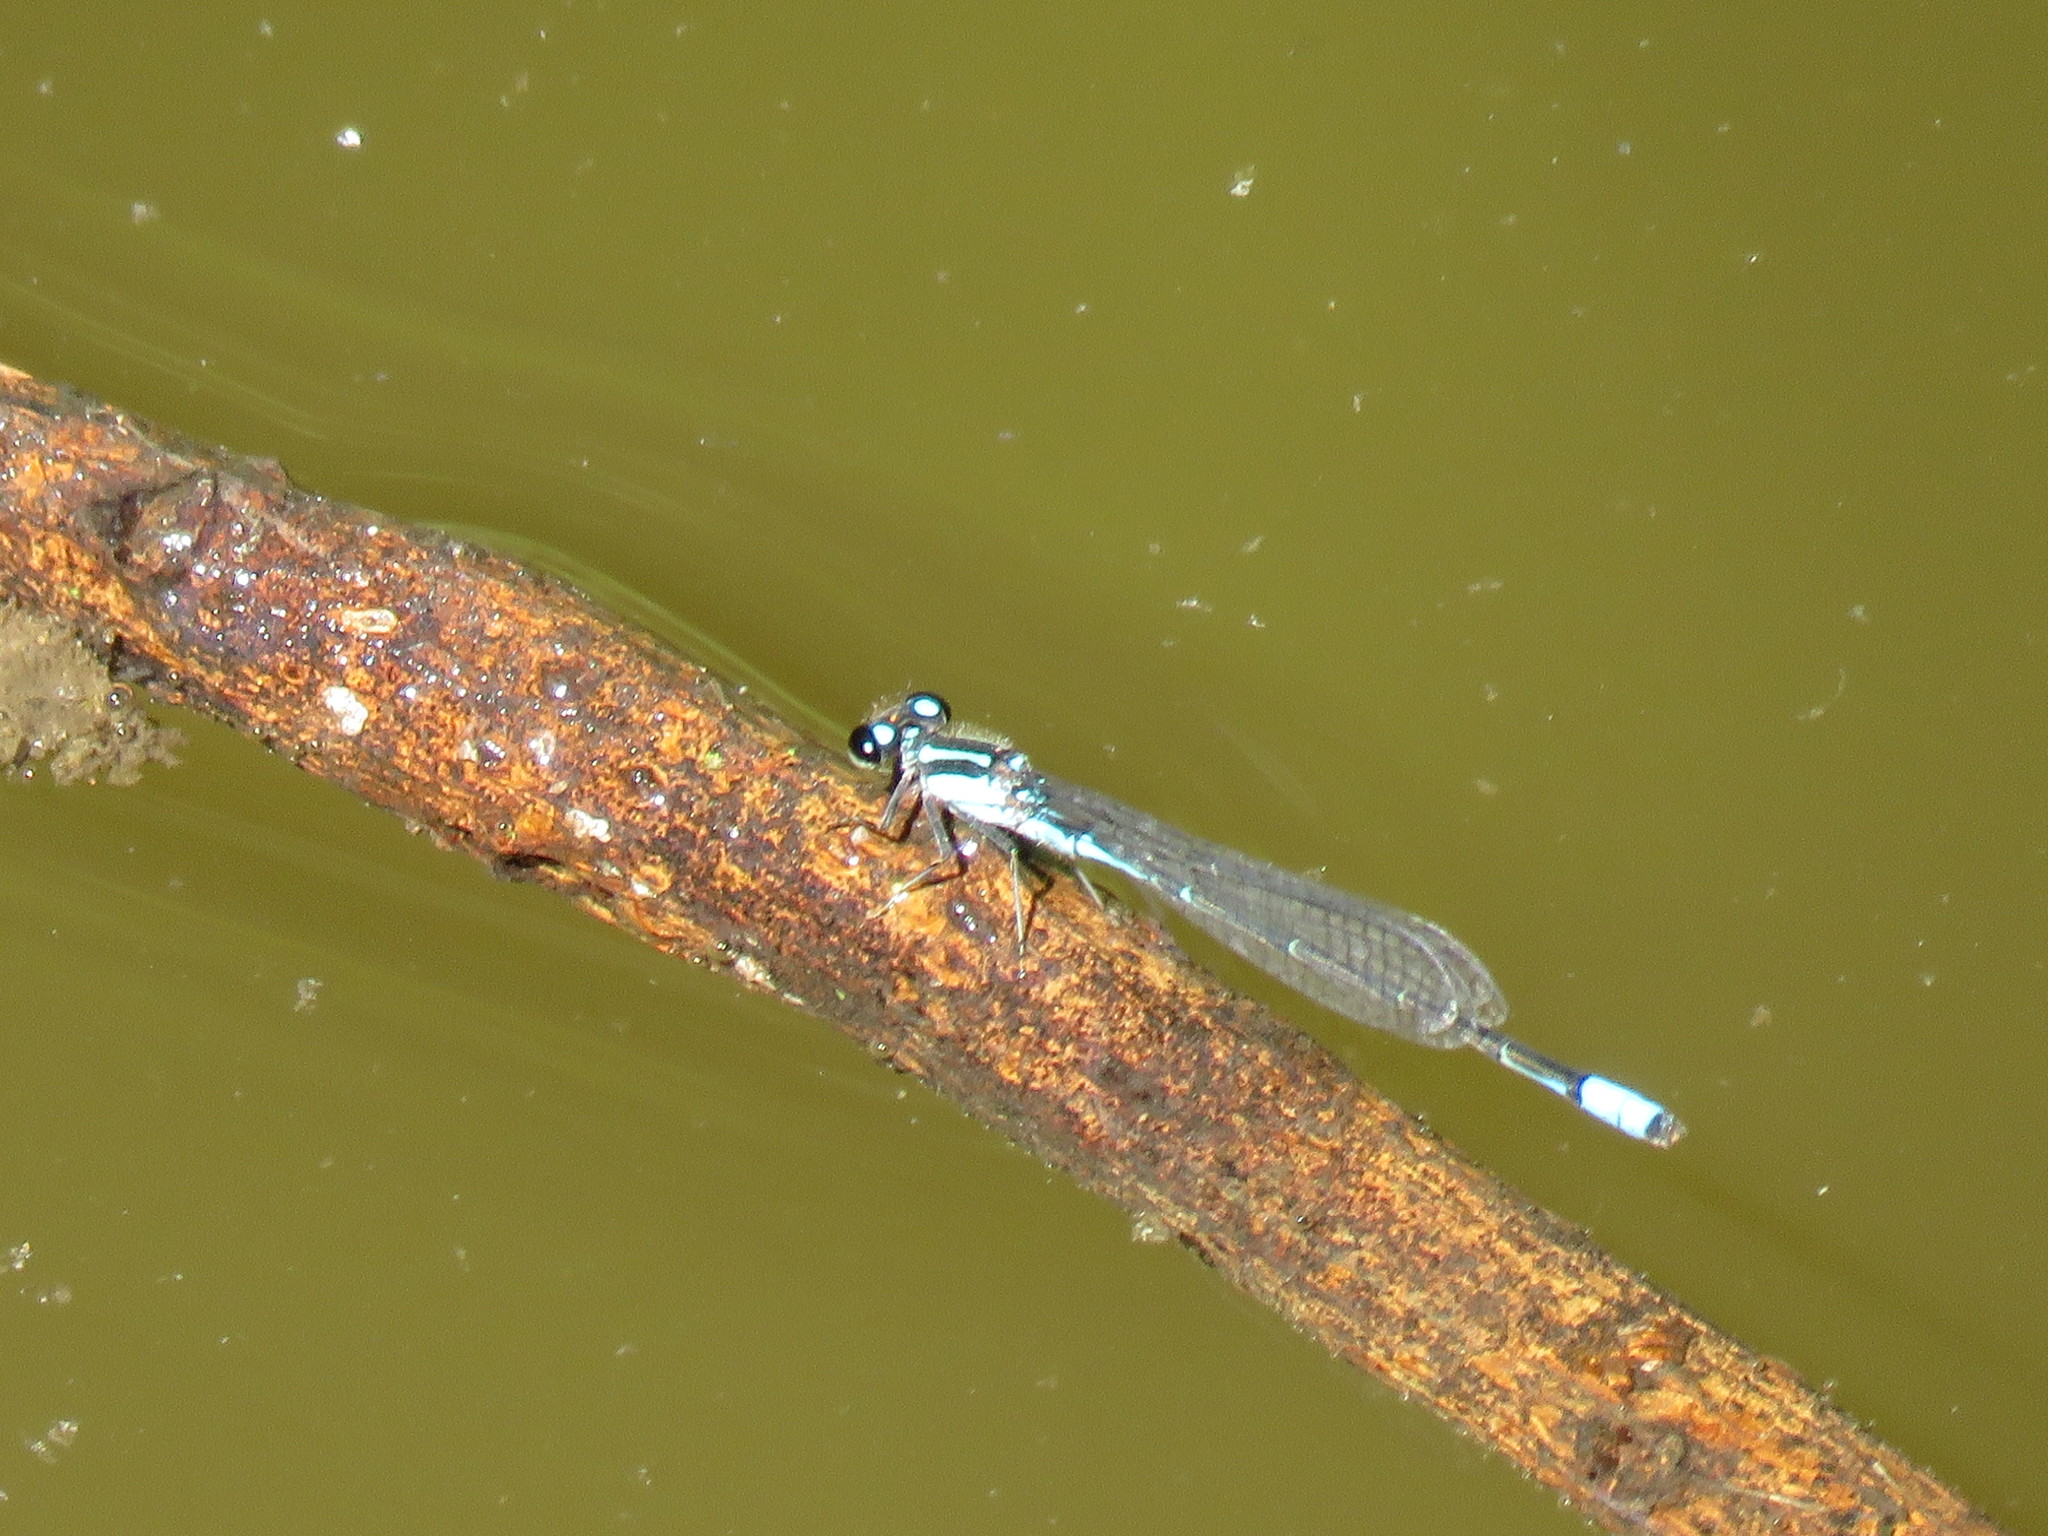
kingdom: Animalia
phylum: Arthropoda
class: Insecta
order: Odonata
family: Coenagrionidae
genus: Acanthagrion
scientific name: Acanthagrion lancea
